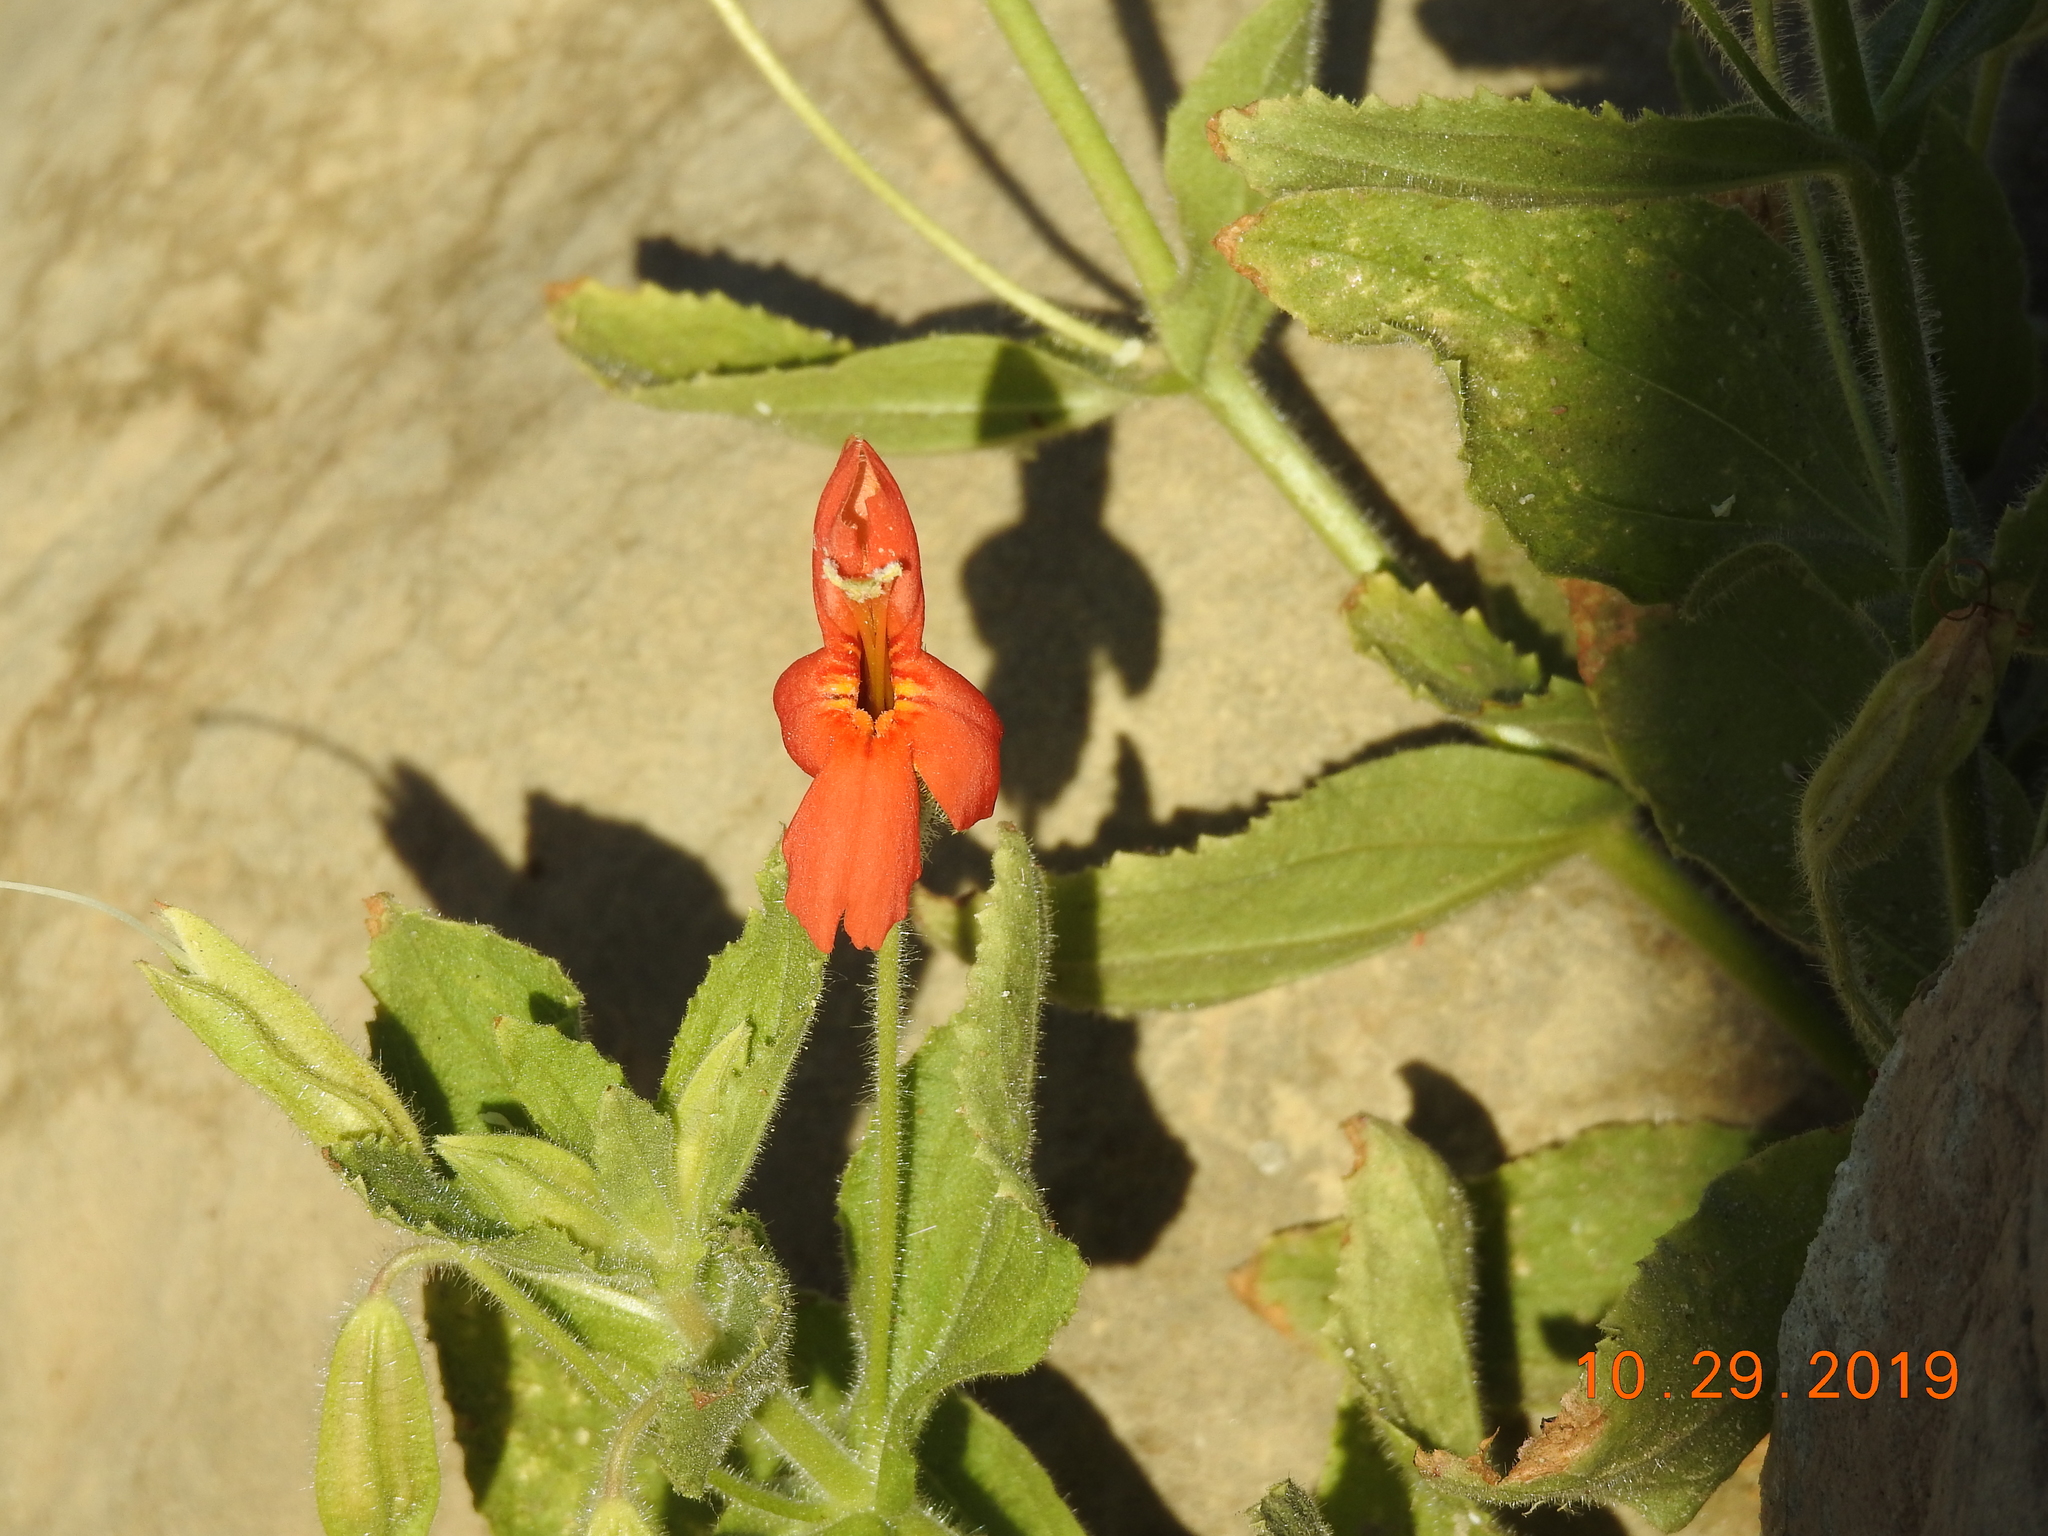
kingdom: Plantae
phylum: Tracheophyta
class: Magnoliopsida
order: Lamiales
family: Phrymaceae
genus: Erythranthe
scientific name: Erythranthe cardinalis
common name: Scarlet monkey-flower
